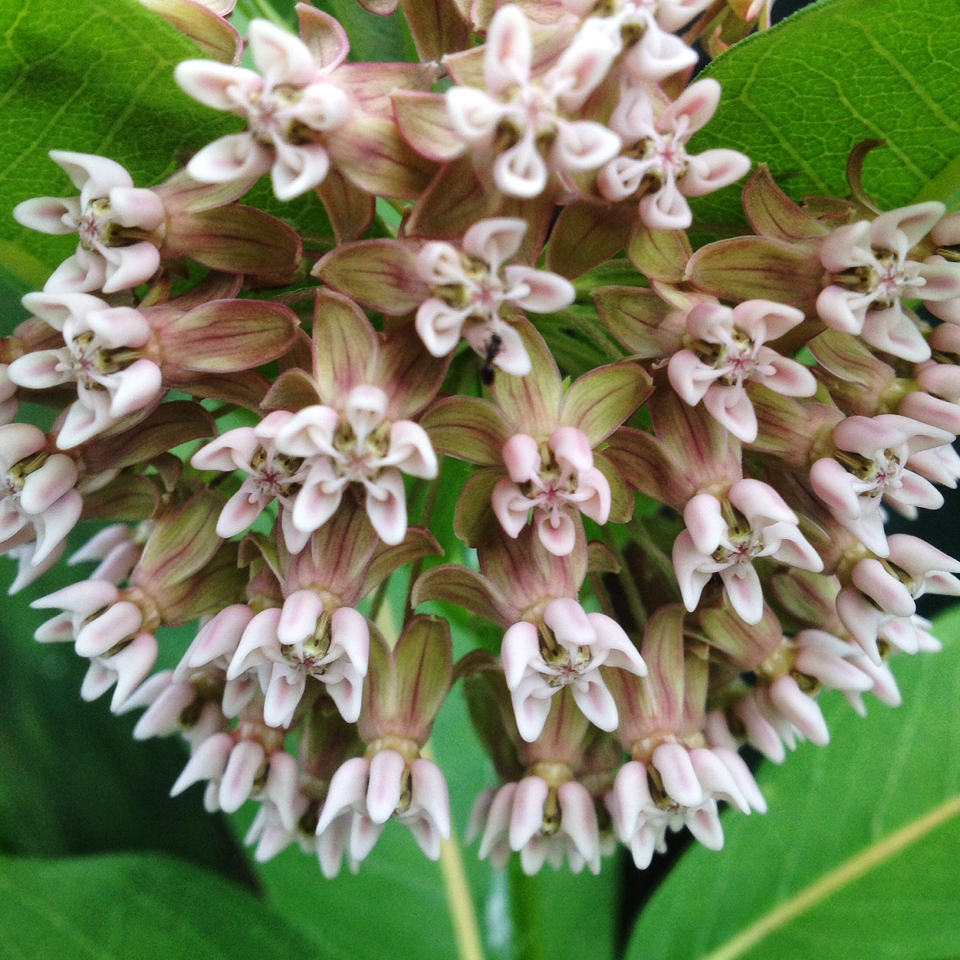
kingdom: Plantae
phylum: Tracheophyta
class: Magnoliopsida
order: Gentianales
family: Apocynaceae
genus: Asclepias
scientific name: Asclepias syriaca
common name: Common milkweed
